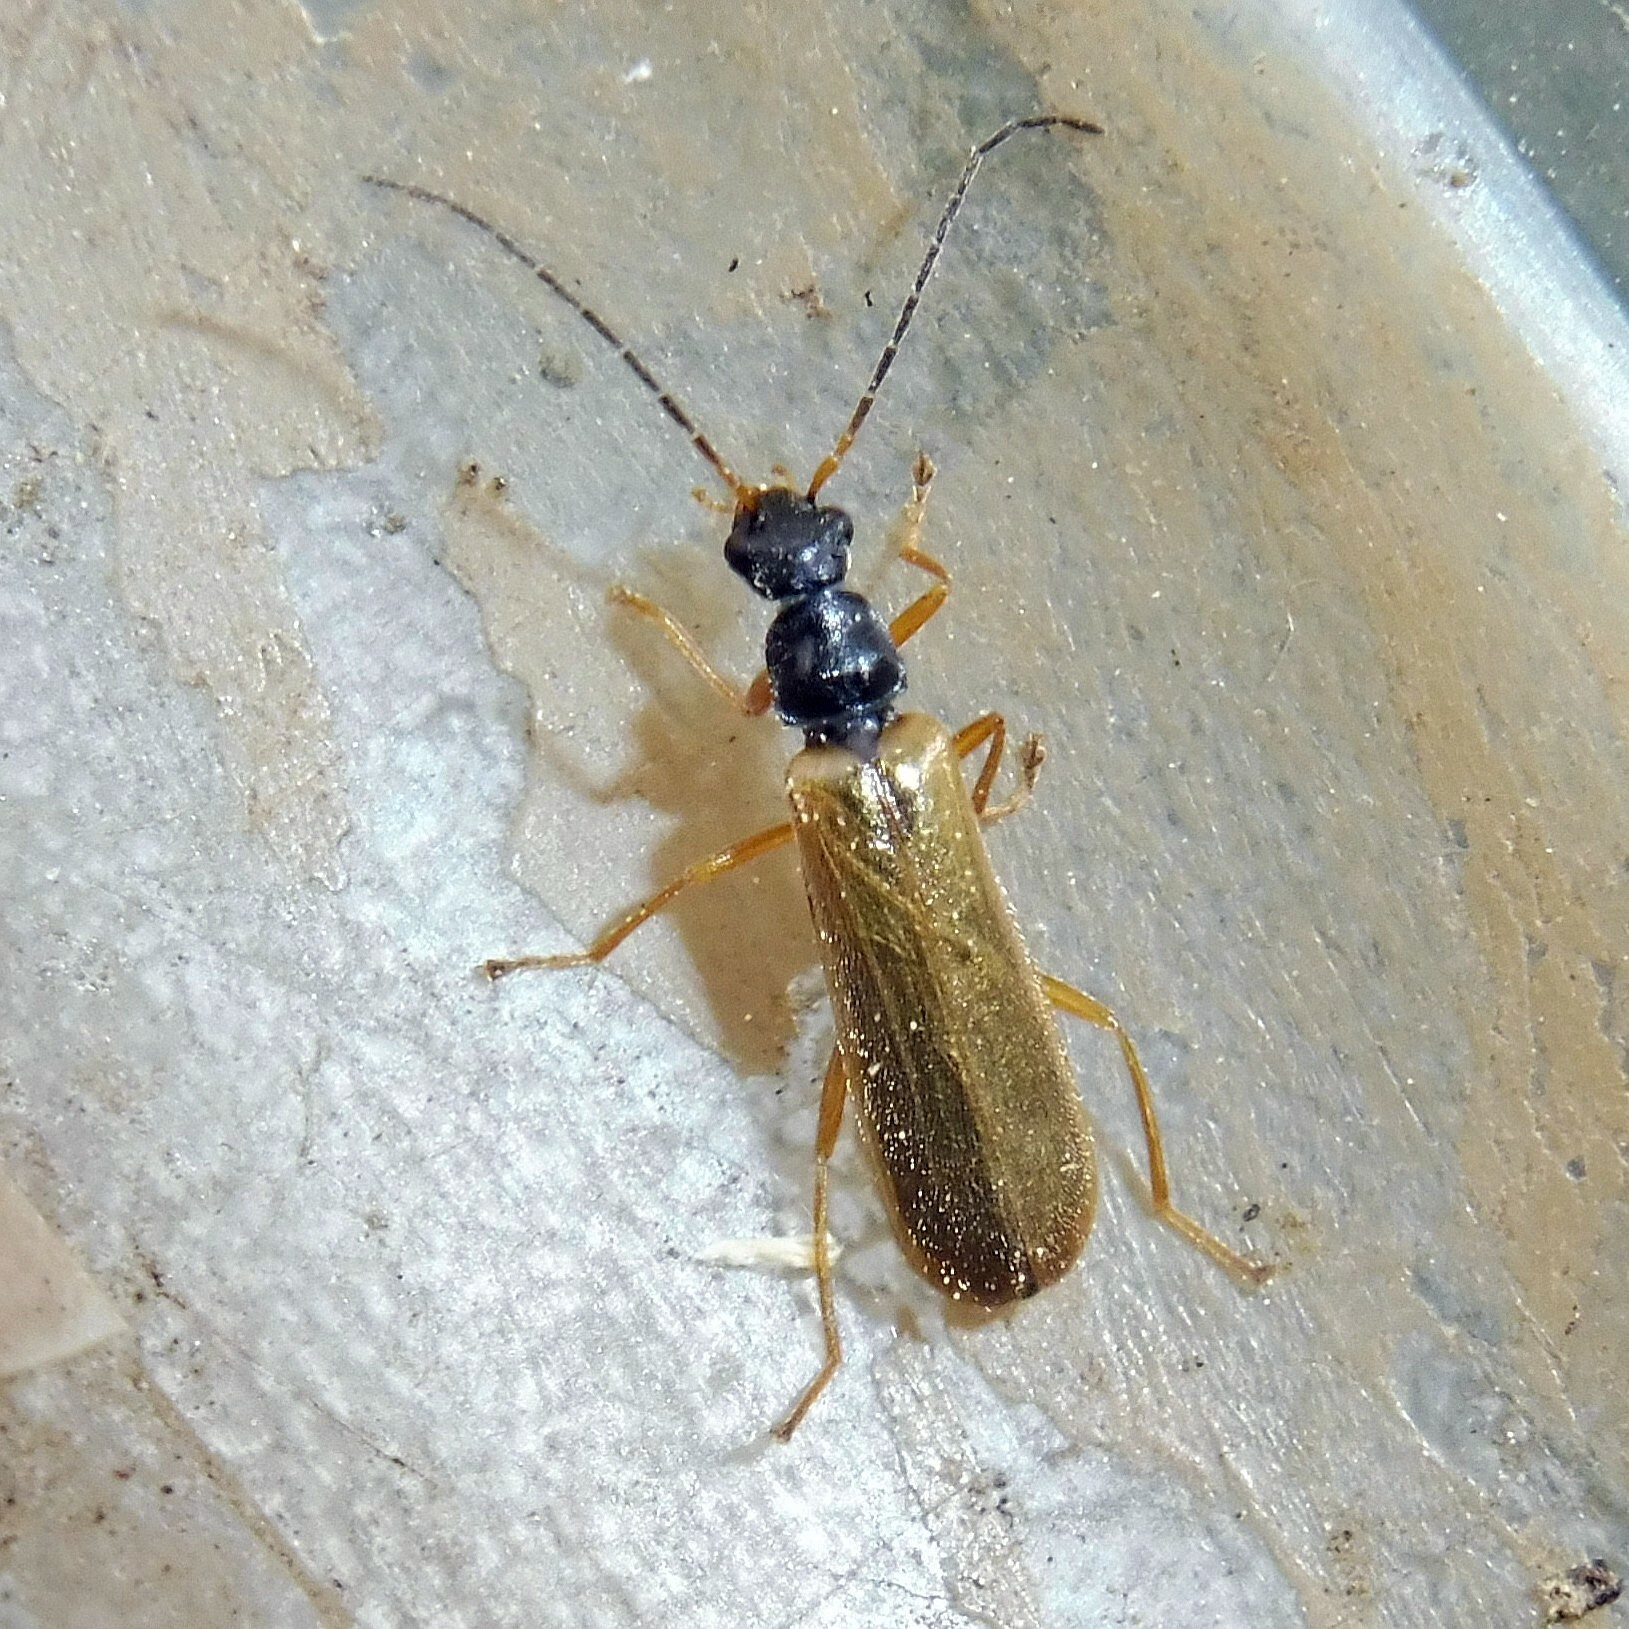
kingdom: Animalia
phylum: Arthropoda
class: Insecta
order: Coleoptera
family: Cantharidae
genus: Rhagonycha
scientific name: Rhagonycha lignosa
